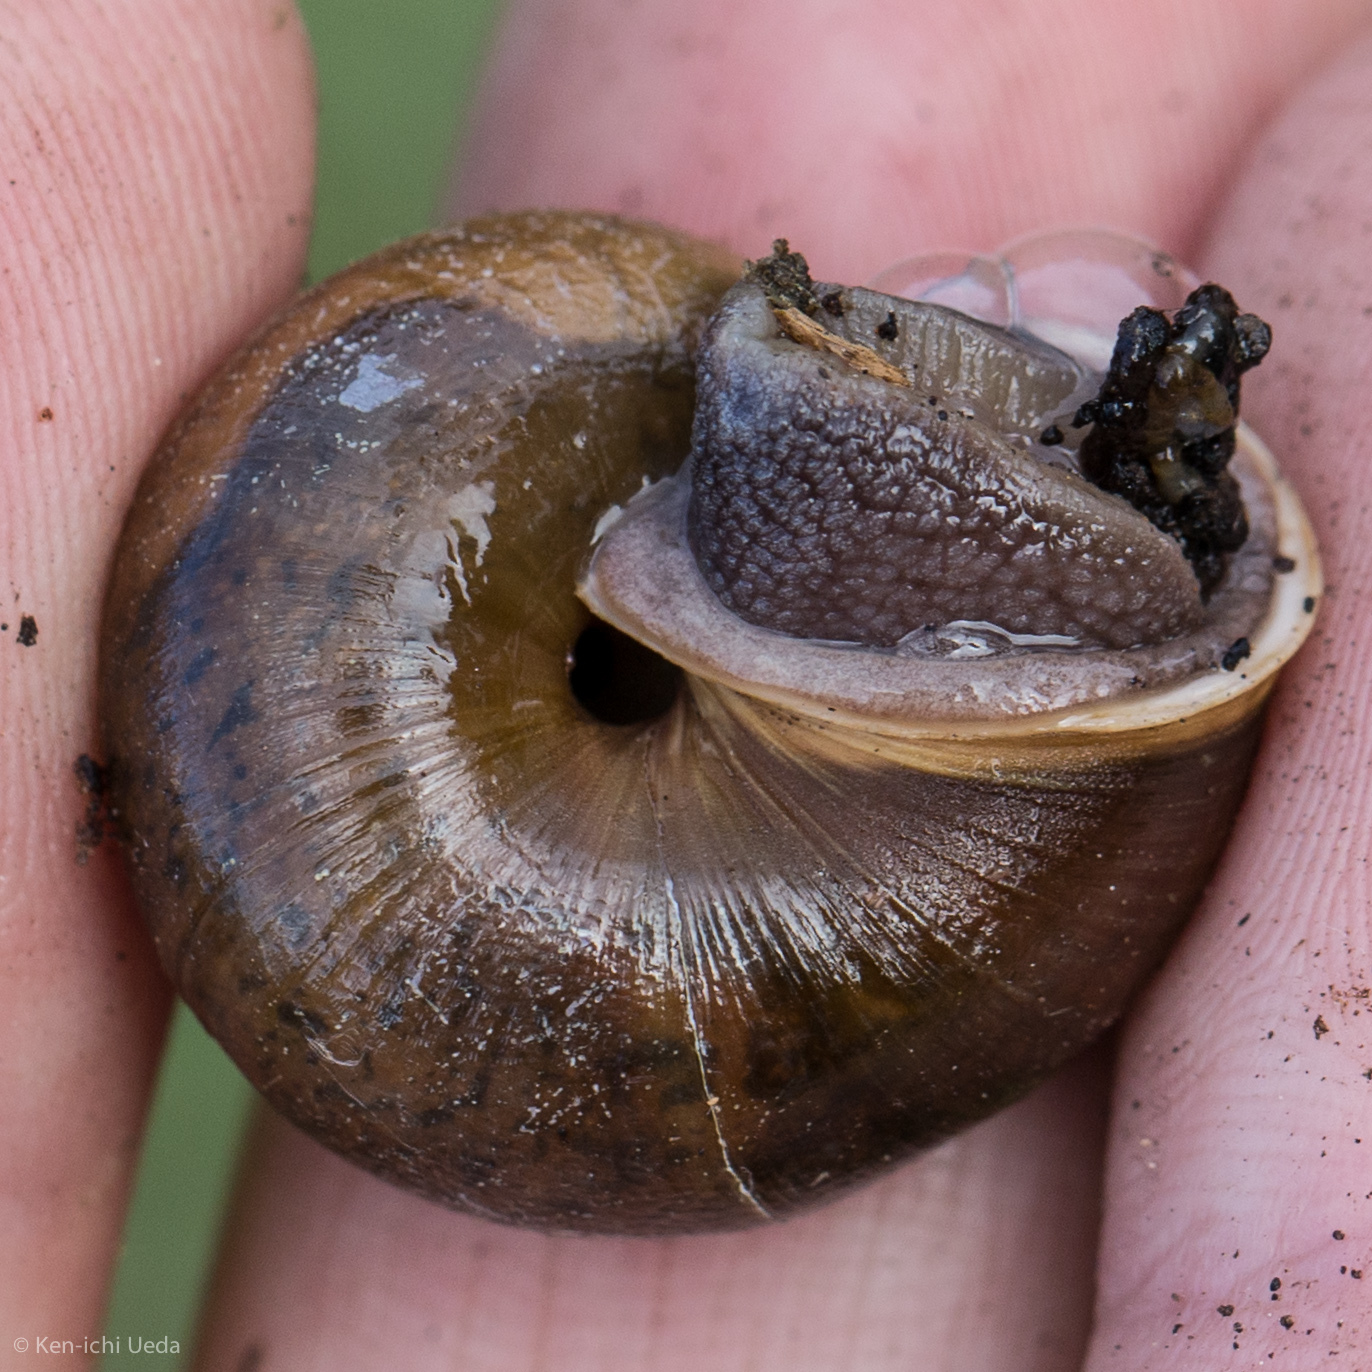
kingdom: Animalia
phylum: Mollusca
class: Gastropoda
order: Stylommatophora
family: Xanthonychidae
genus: Helminthoglypta
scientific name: Helminthoglypta diabloensis
